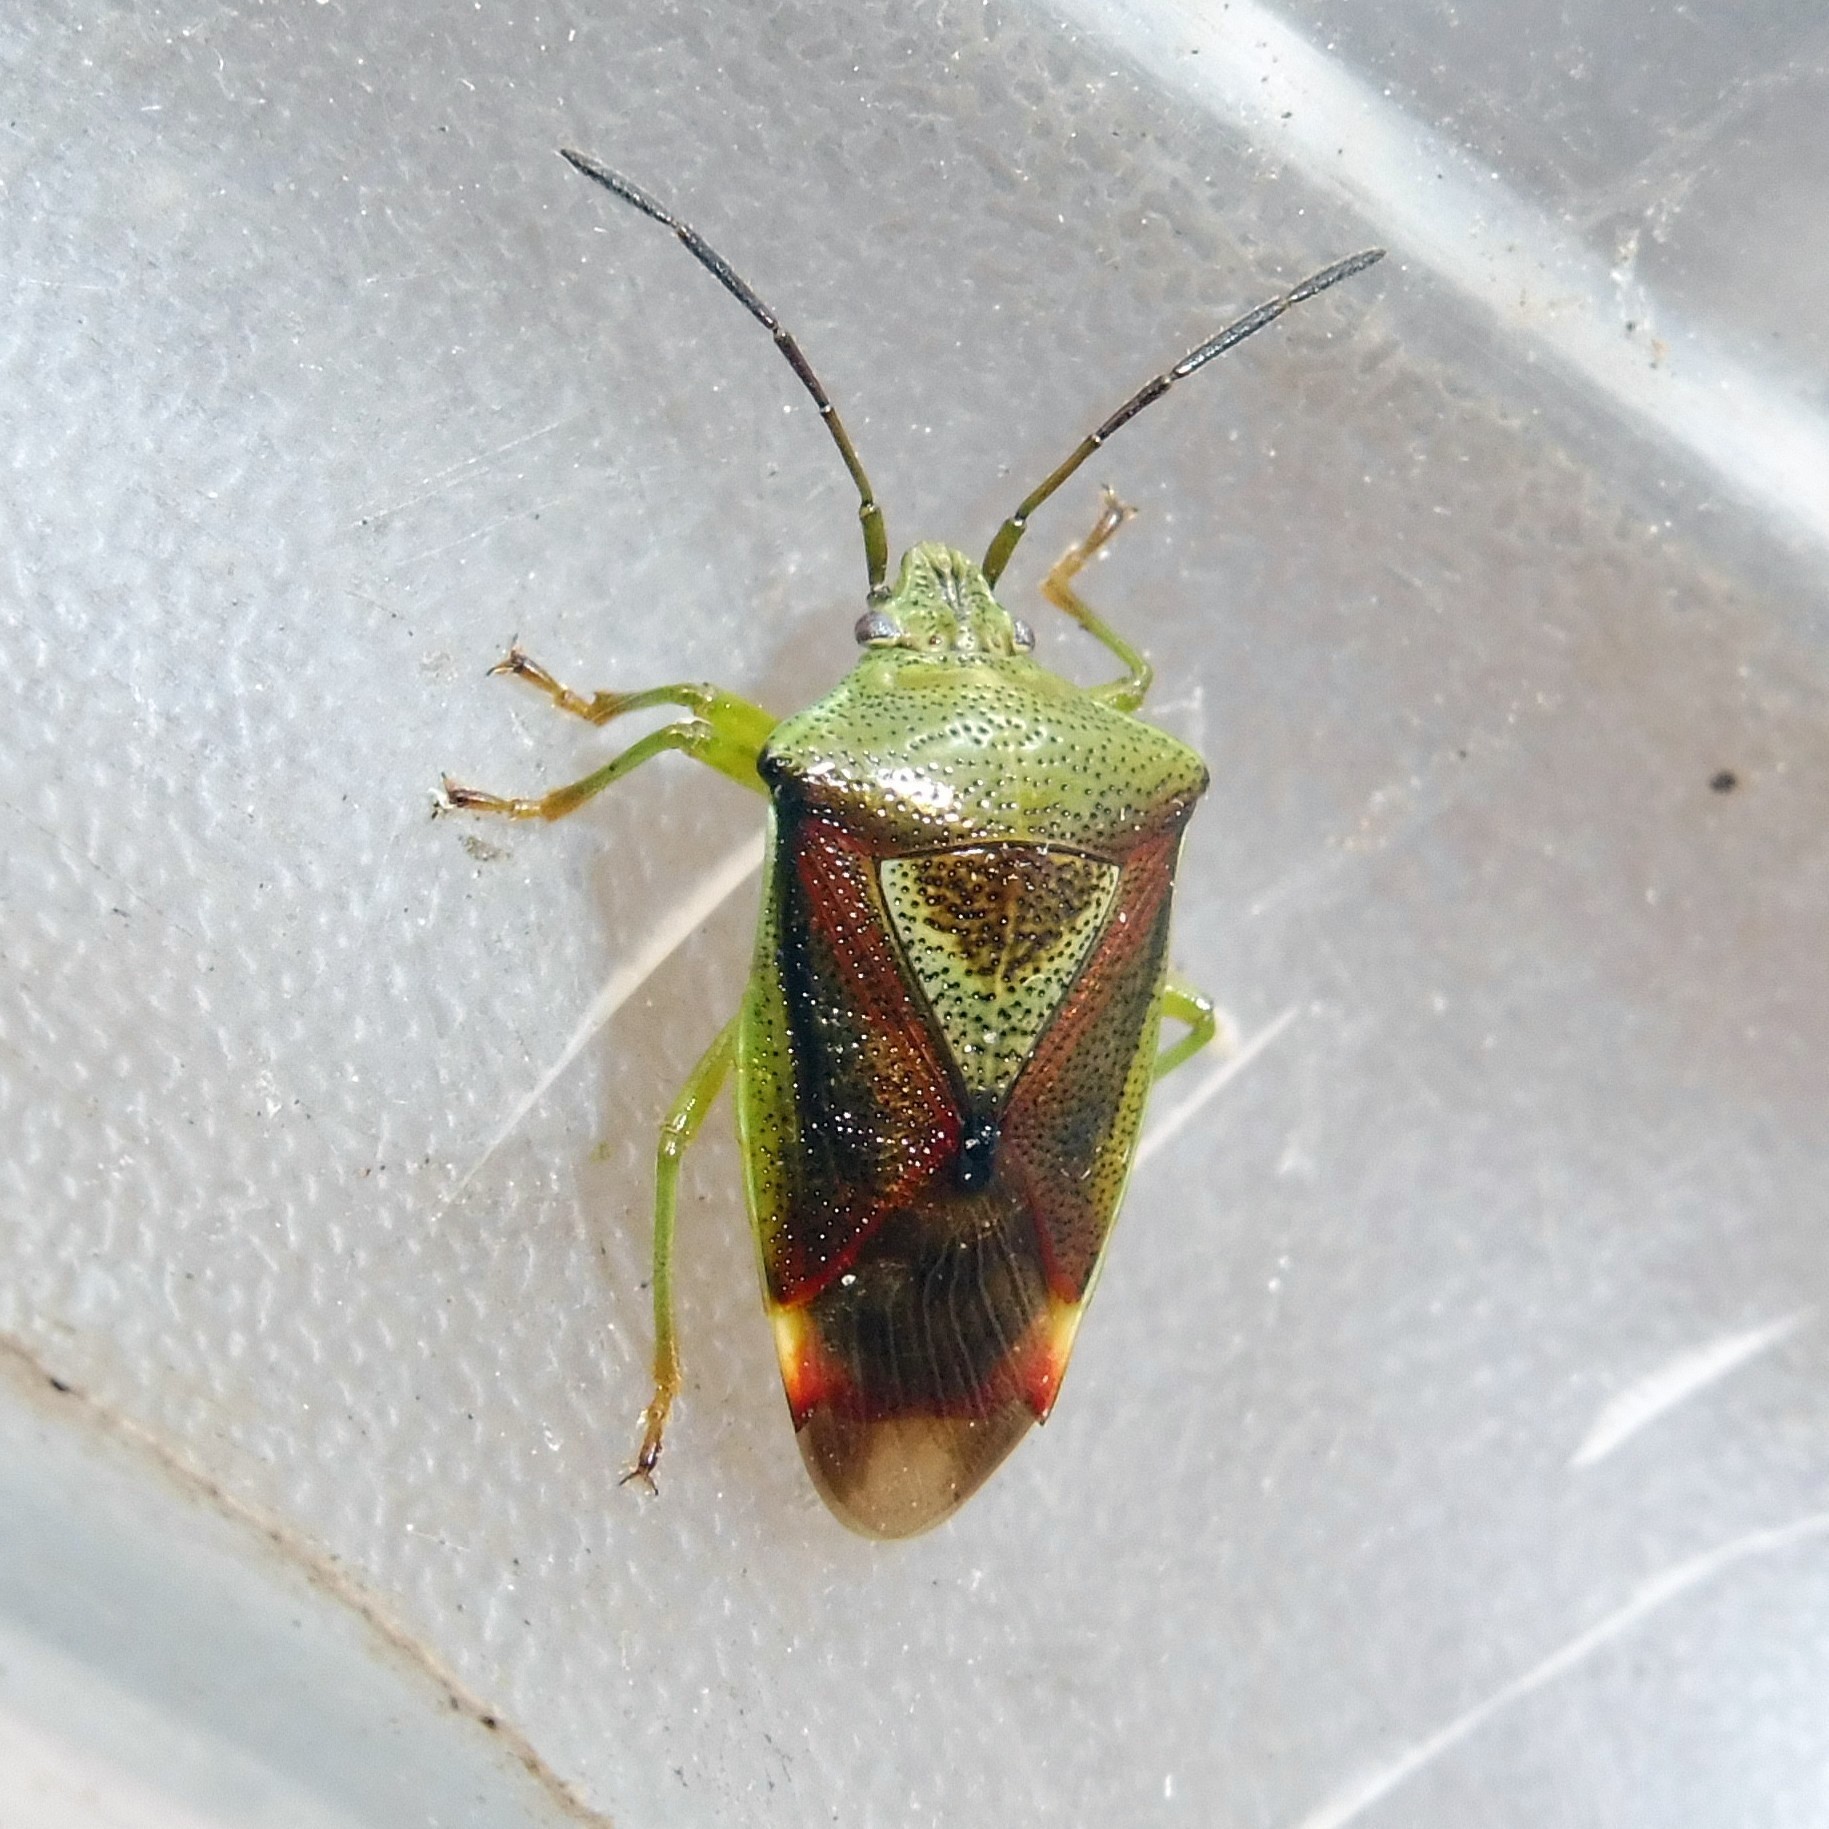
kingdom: Animalia
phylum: Arthropoda
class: Insecta
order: Hemiptera
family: Acanthosomatidae
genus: Elasmostethus
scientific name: Elasmostethus interstinctus
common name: Birch shieldbug
